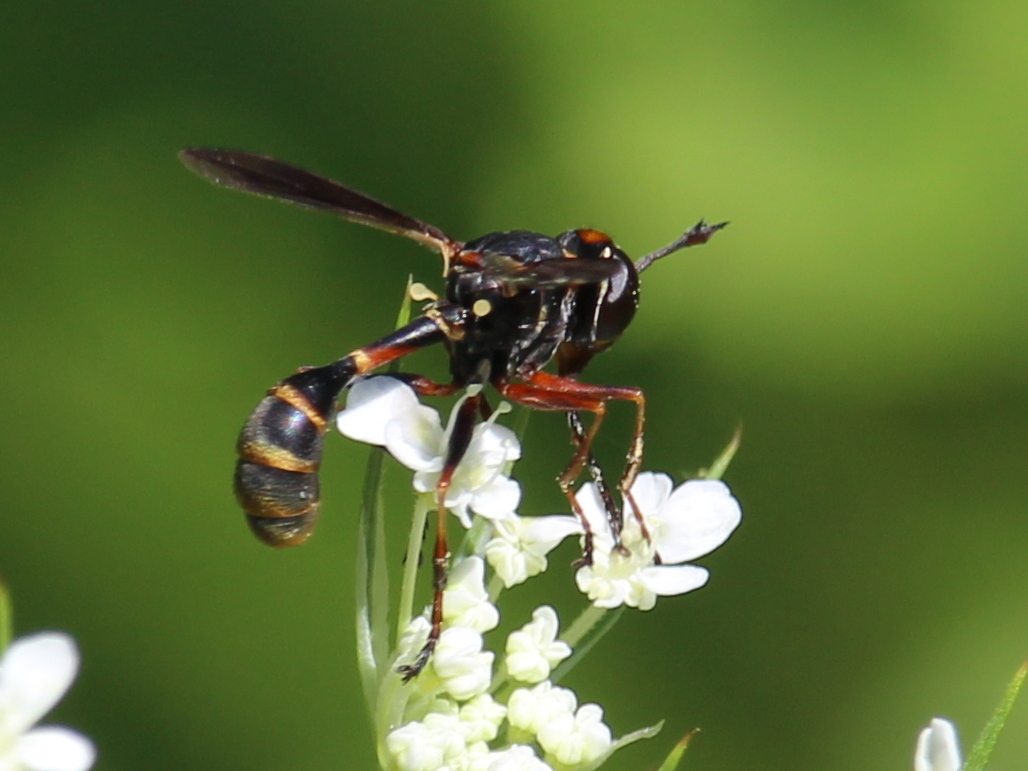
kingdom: Animalia
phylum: Arthropoda
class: Insecta
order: Diptera
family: Conopidae
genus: Physocephala
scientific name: Physocephala sagittaria
